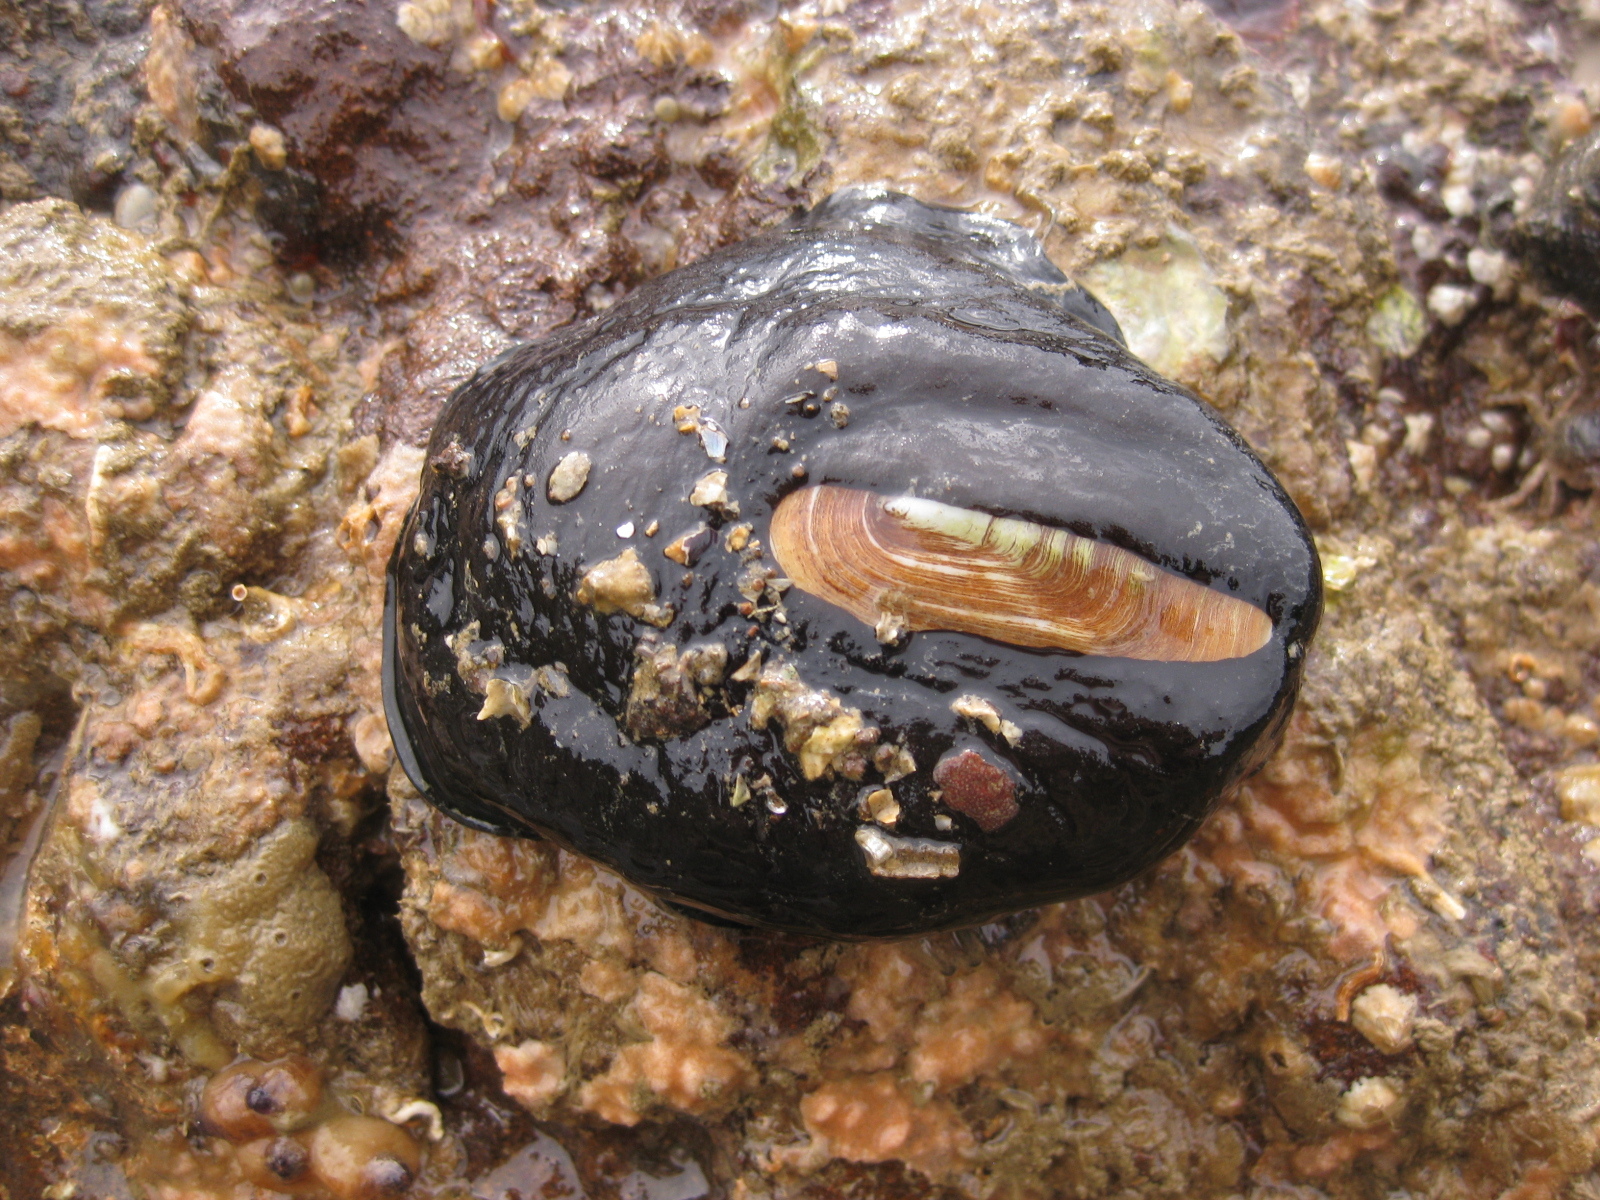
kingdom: Animalia
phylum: Mollusca
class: Gastropoda
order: Lepetellida
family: Fissurellidae
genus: Scutus
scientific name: Scutus breviculus
